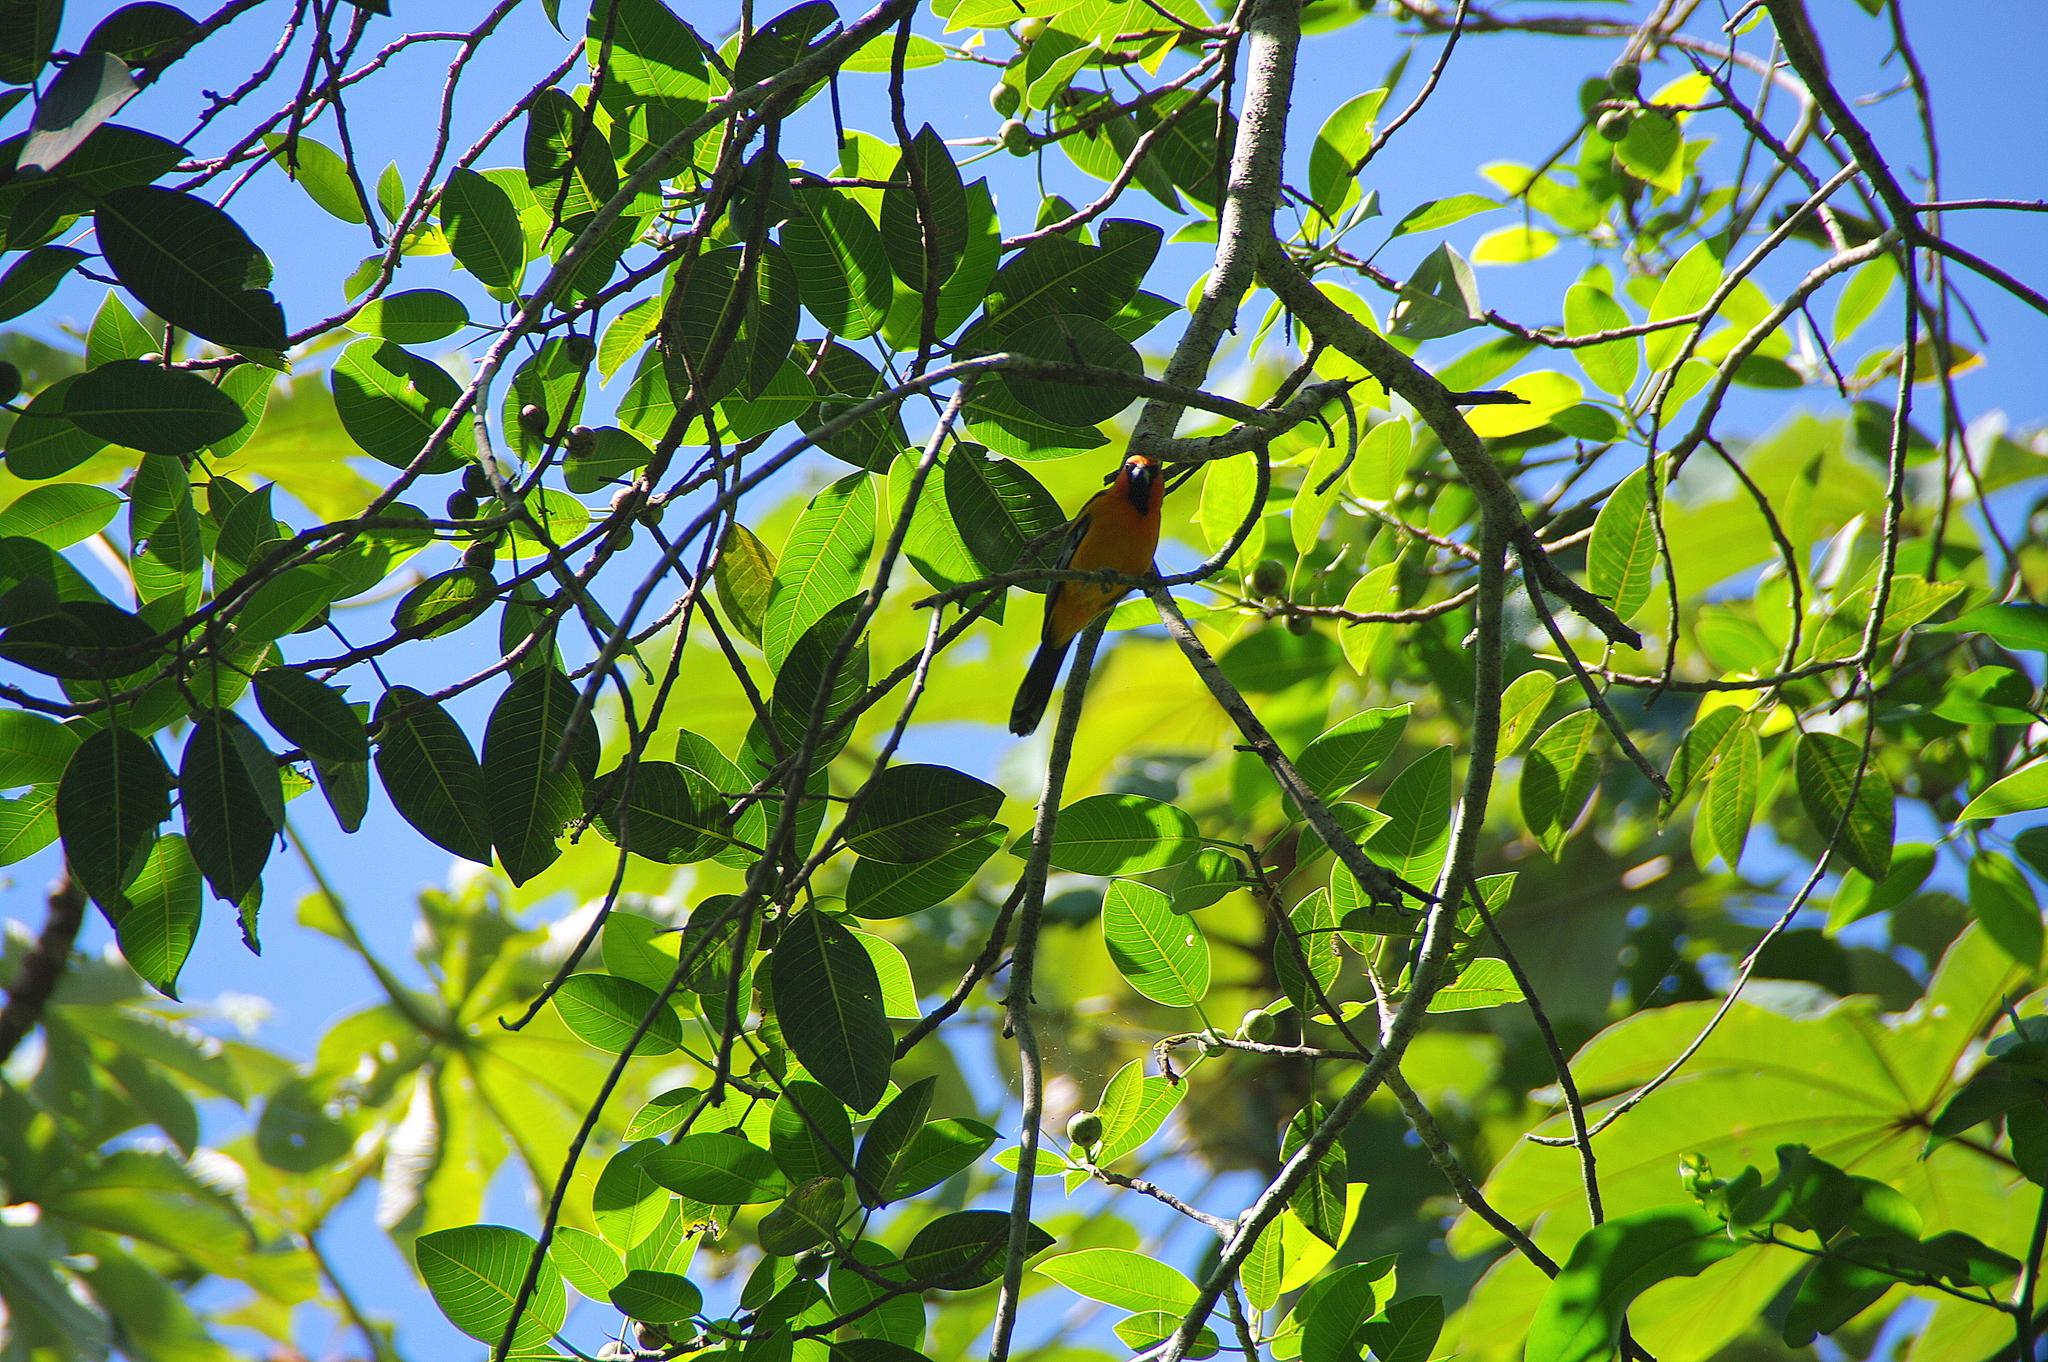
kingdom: Animalia
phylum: Chordata
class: Aves
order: Passeriformes
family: Icteridae
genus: Icterus
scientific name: Icterus pustulatus
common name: Streak-backed oriole
